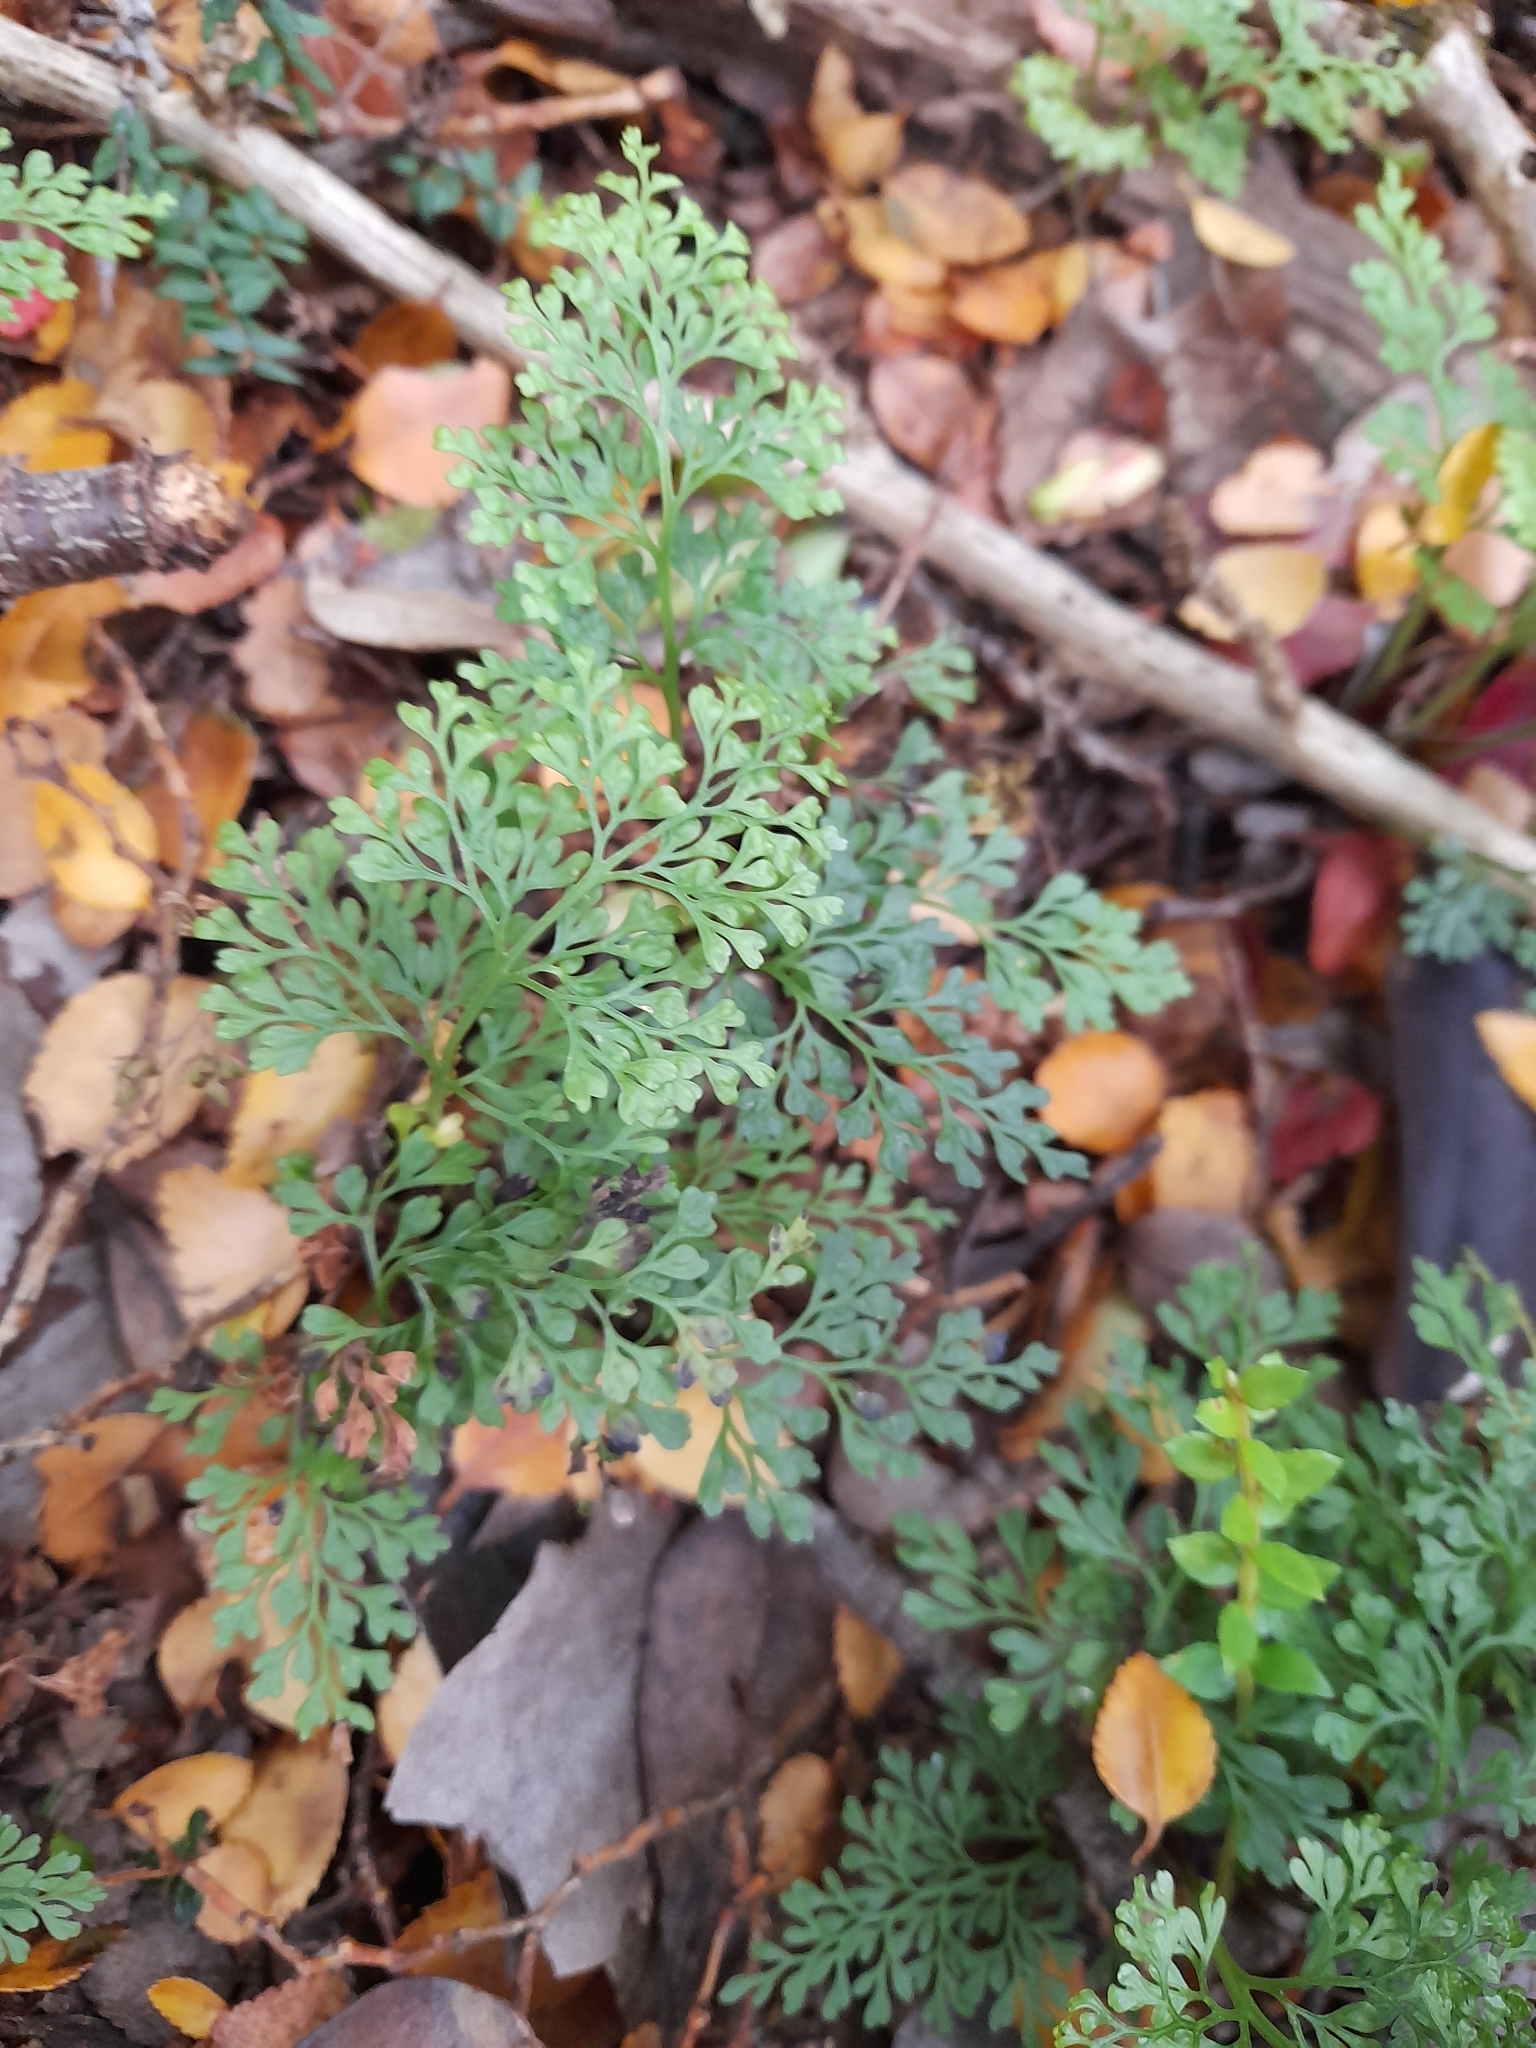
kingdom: Plantae
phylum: Tracheophyta
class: Polypodiopsida
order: Polypodiales
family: Aspleniaceae
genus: Asplenium
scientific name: Asplenium dareoides
